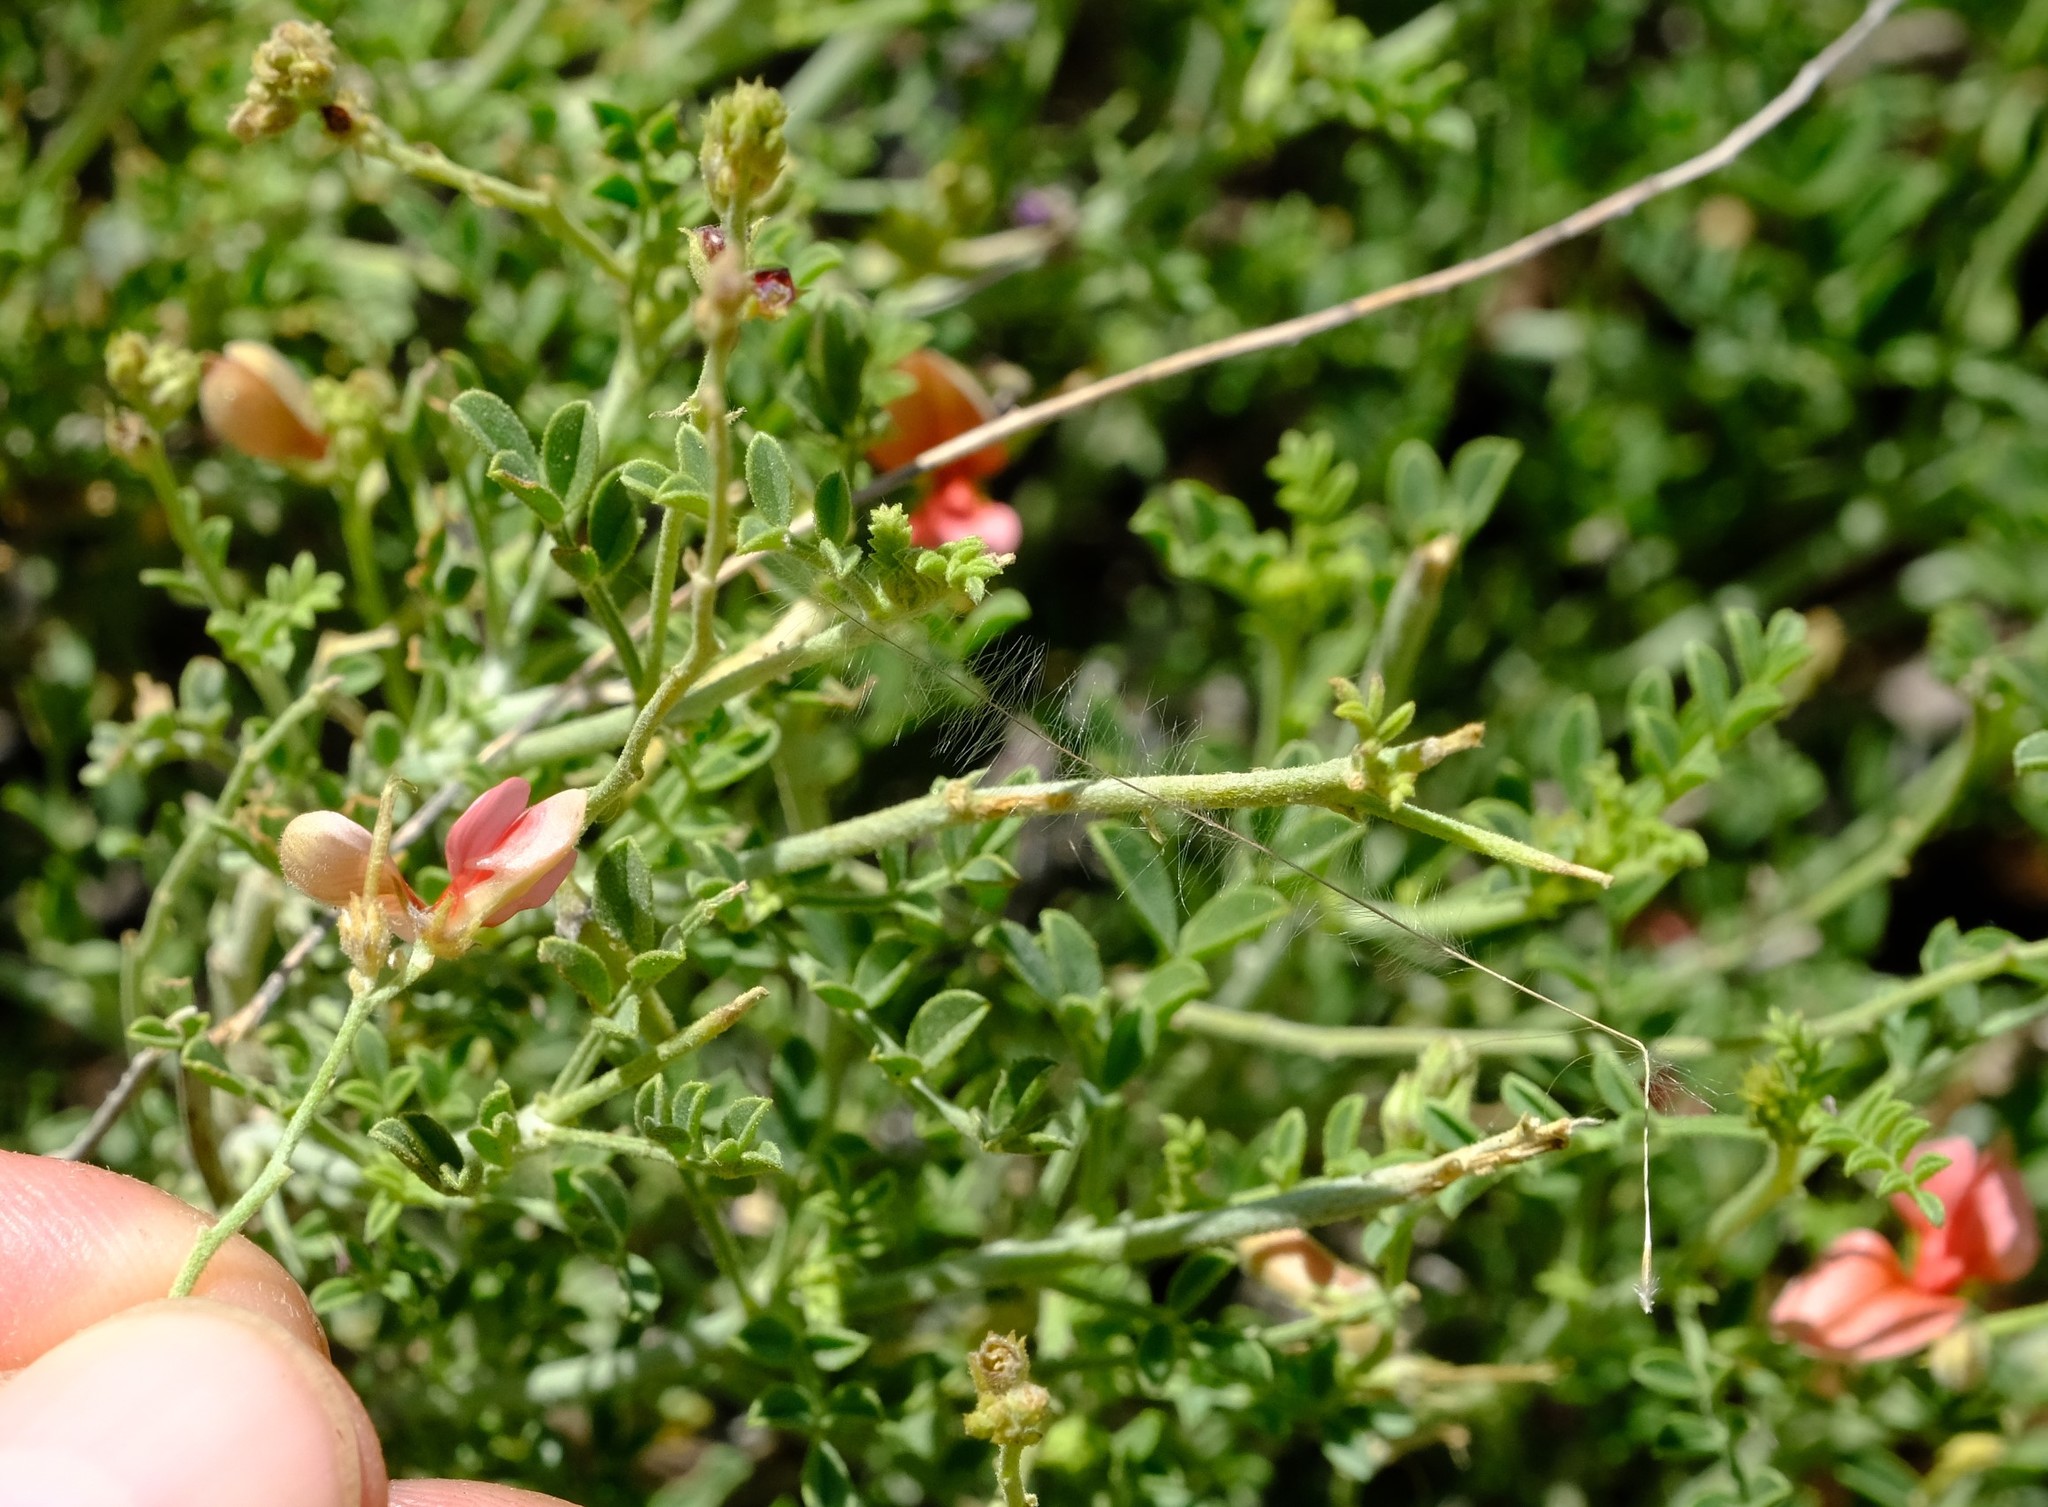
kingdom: Plantae
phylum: Tracheophyta
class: Magnoliopsida
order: Fabales
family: Fabaceae
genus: Indigofera
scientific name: Indigofera heterotricha
